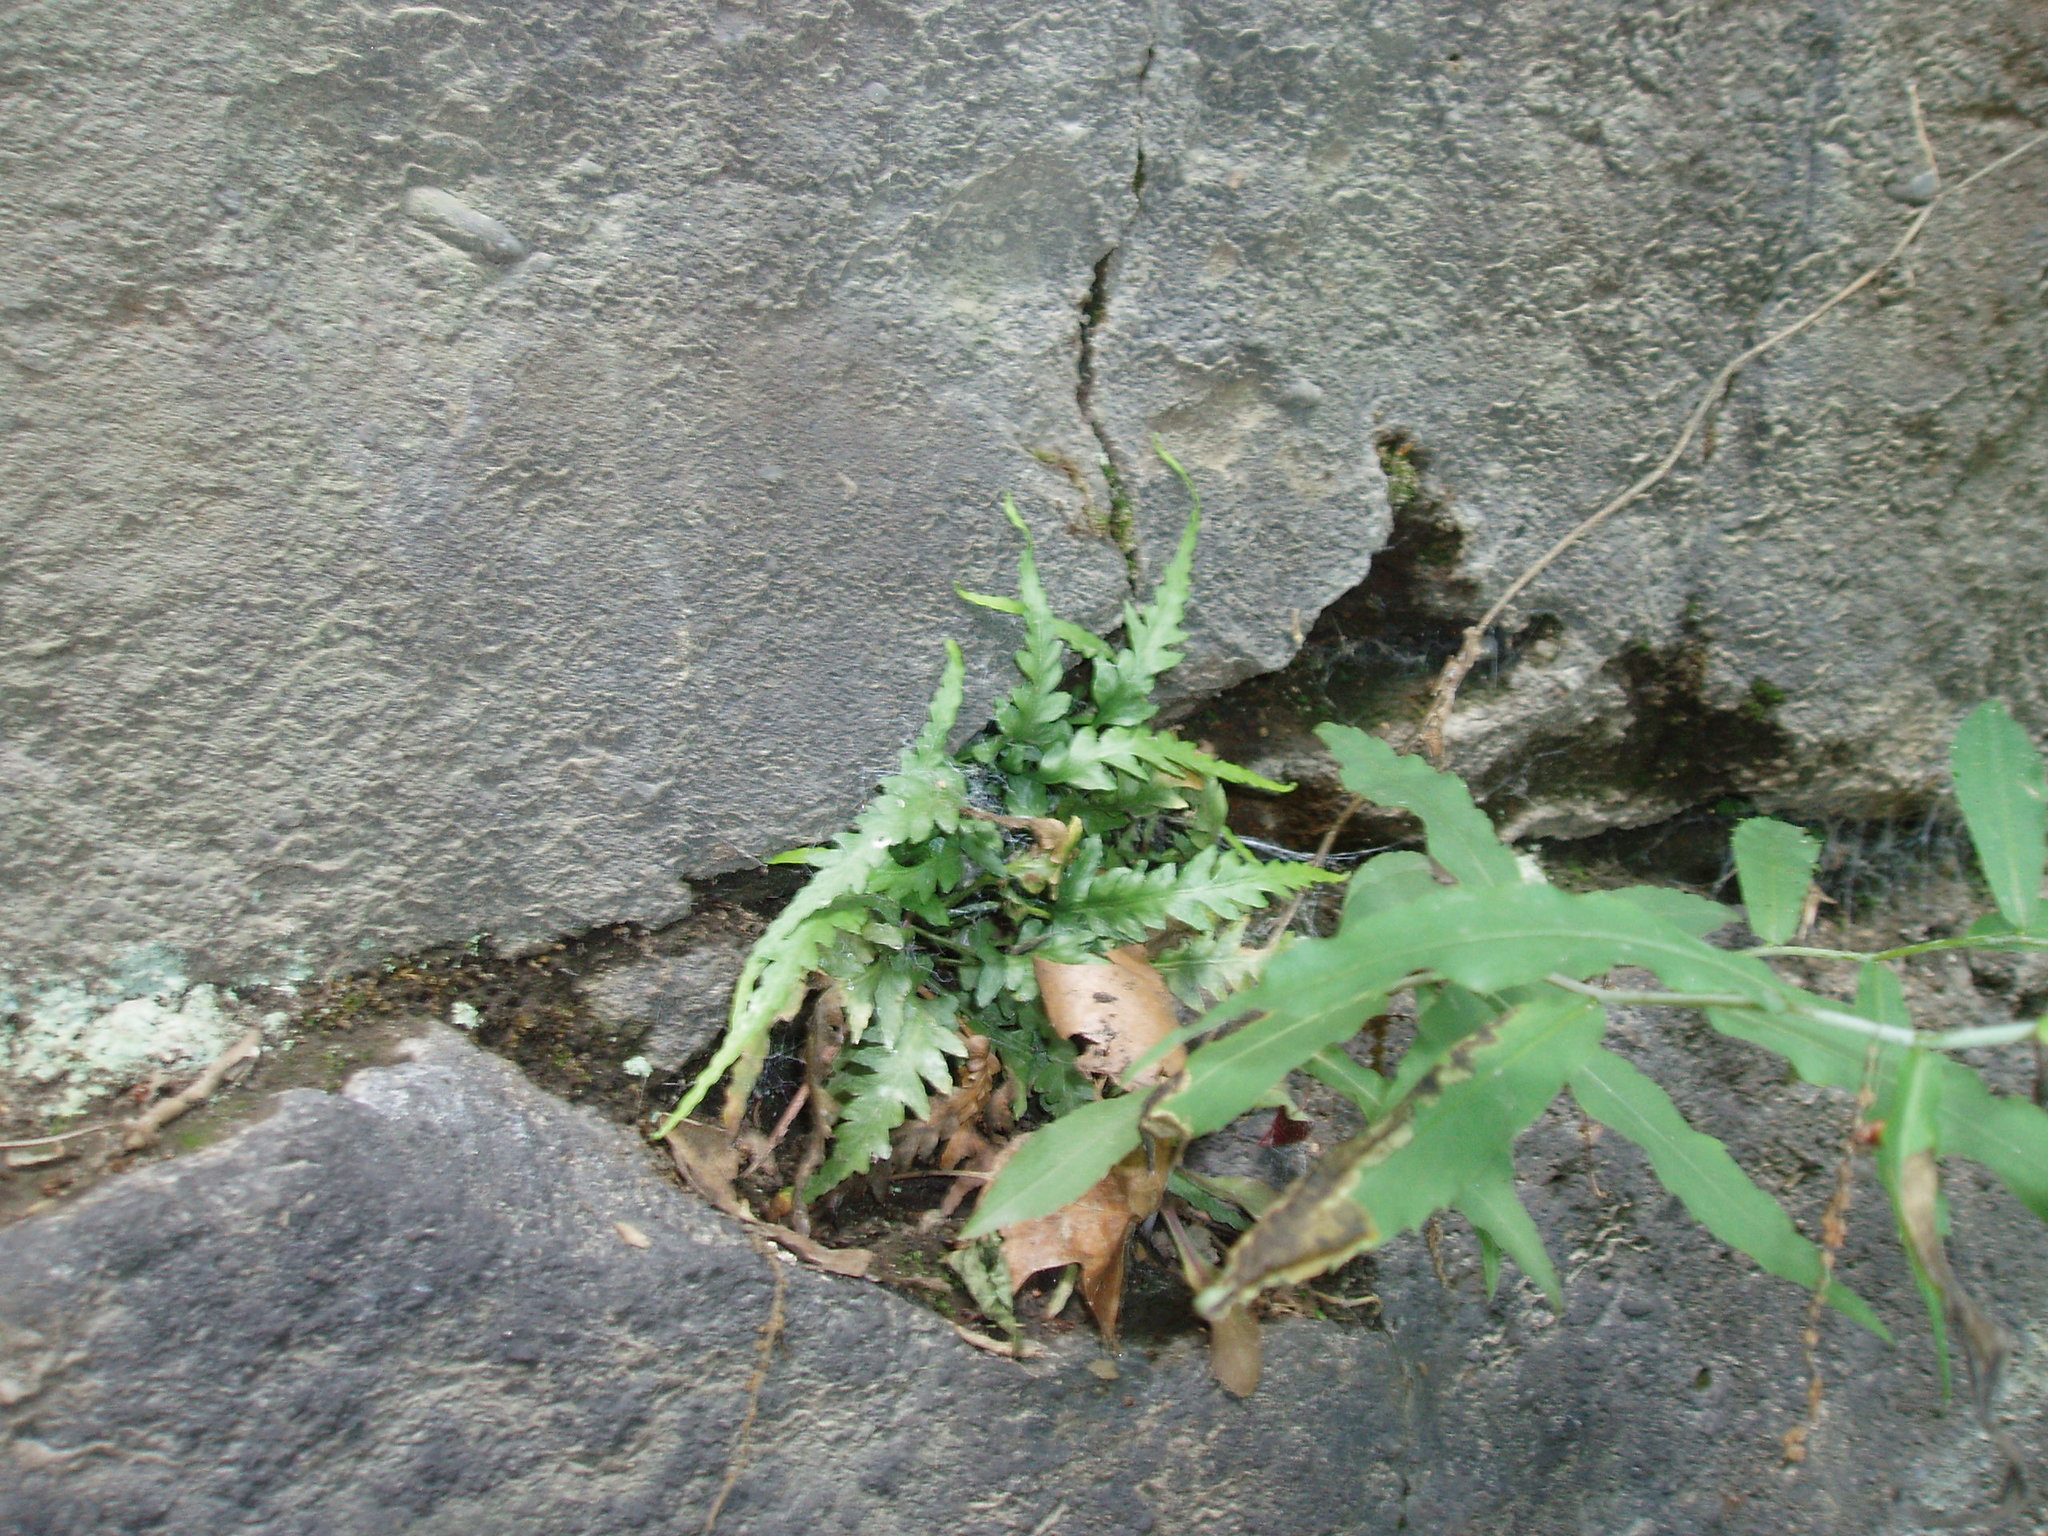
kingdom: Plantae
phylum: Tracheophyta
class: Polypodiopsida
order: Polypodiales
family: Aspleniaceae
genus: Asplenium
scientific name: Asplenium pinnatifidum
